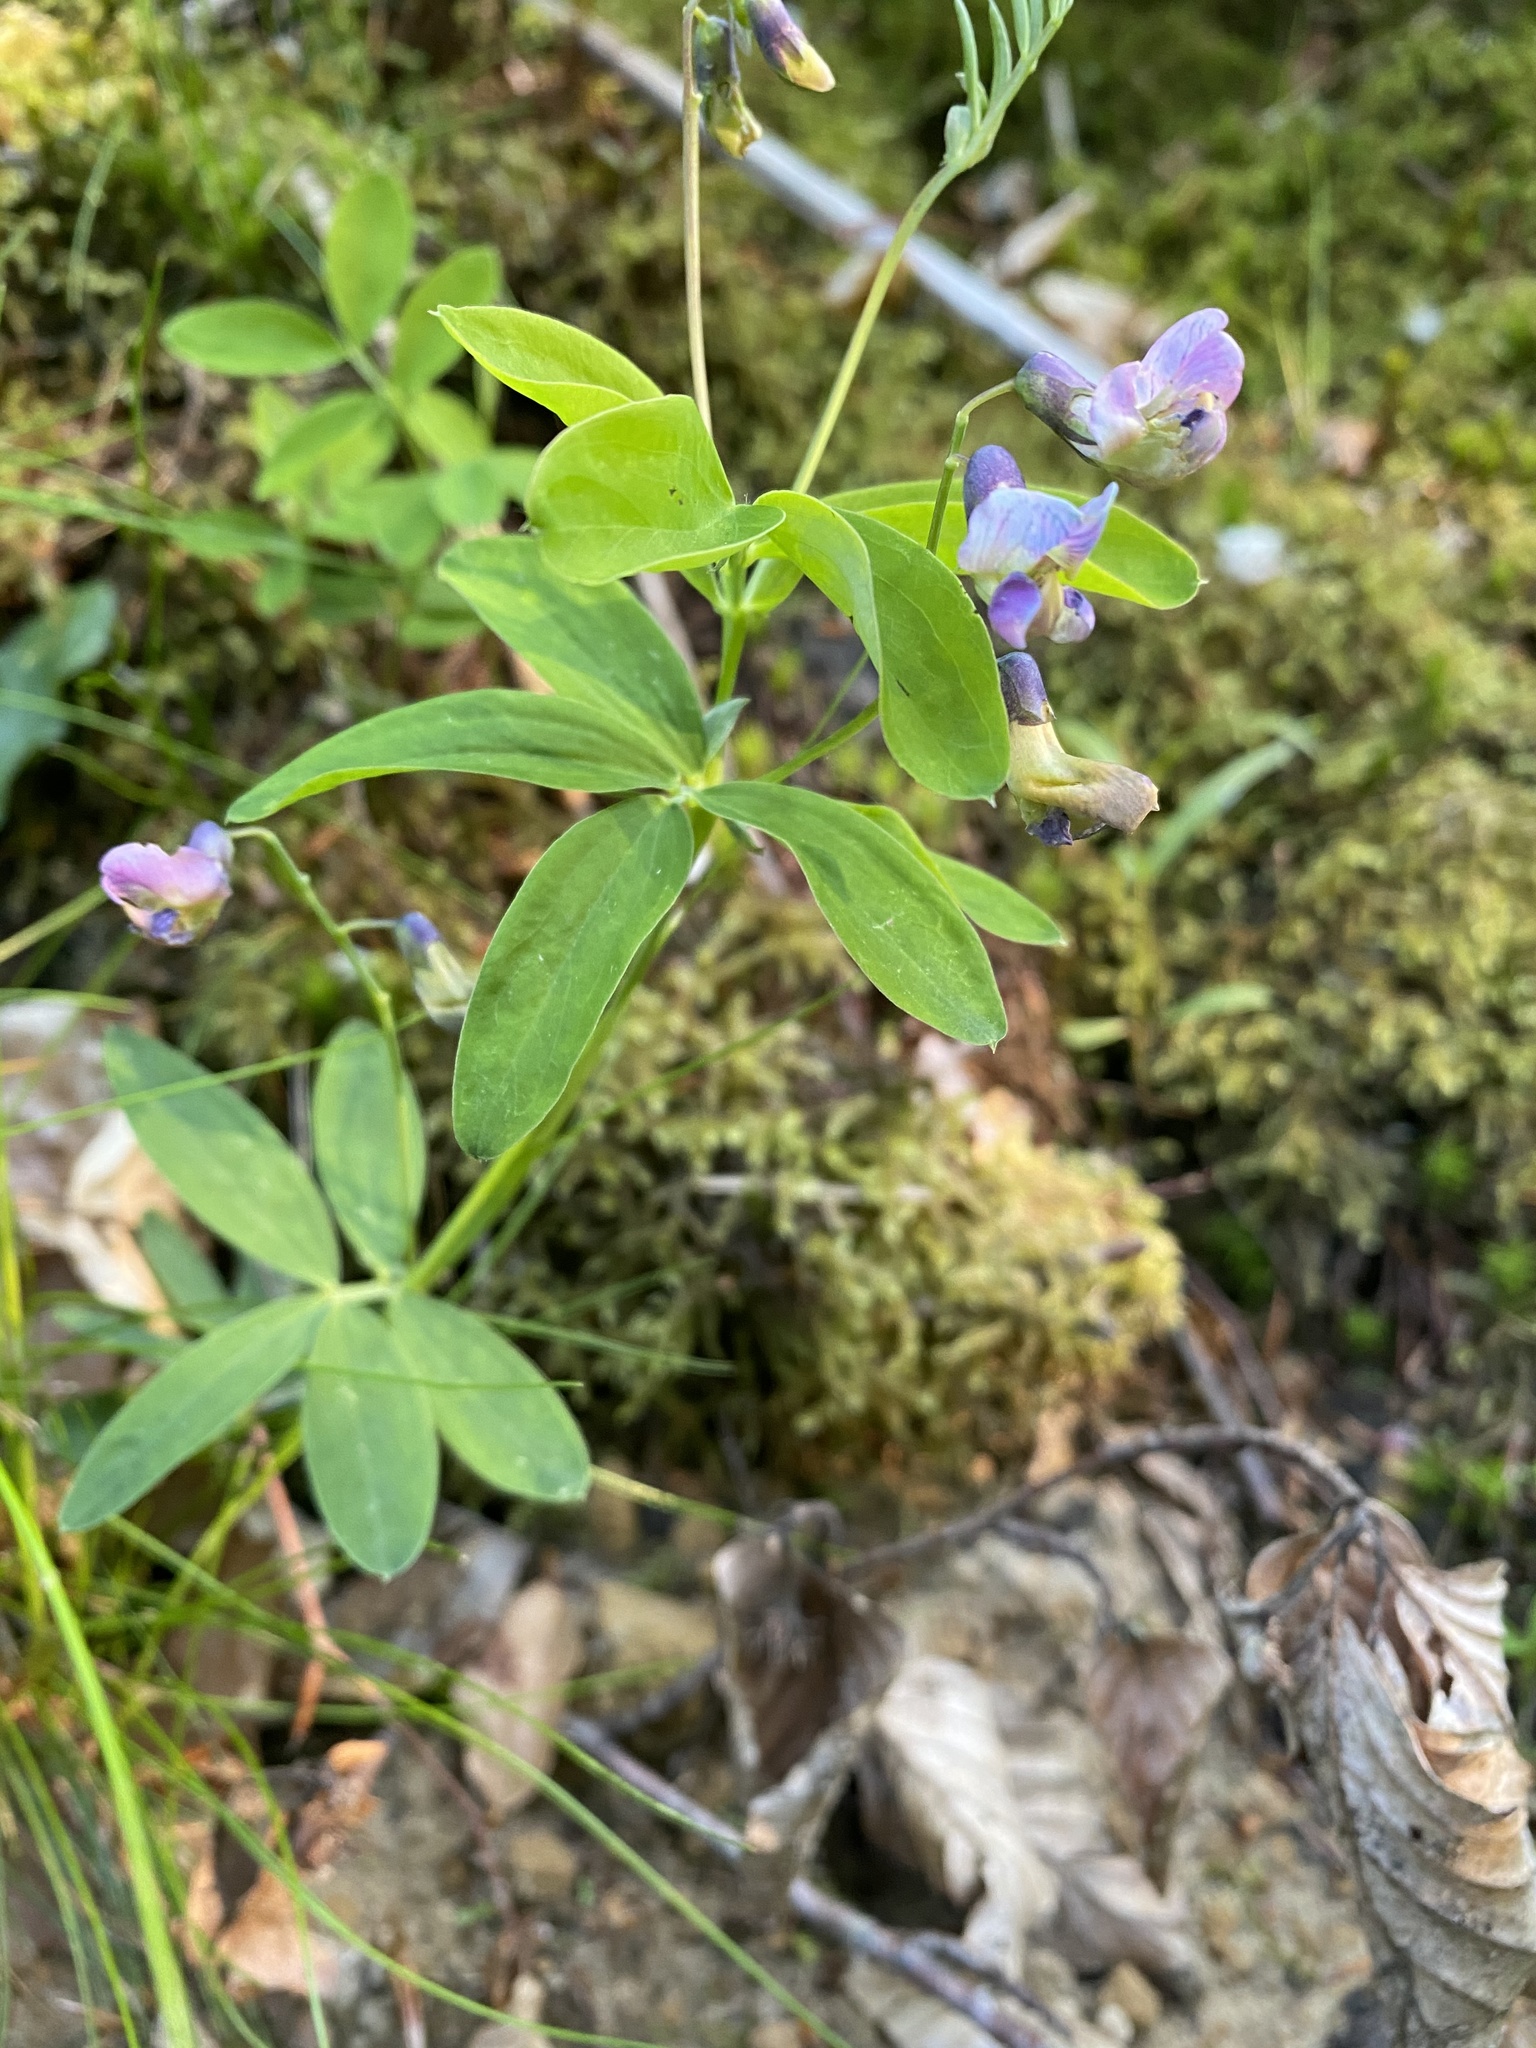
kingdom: Plantae
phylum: Tracheophyta
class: Magnoliopsida
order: Fabales
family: Fabaceae
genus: Lathyrus
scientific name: Lathyrus linifolius
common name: Bitter-vetch
